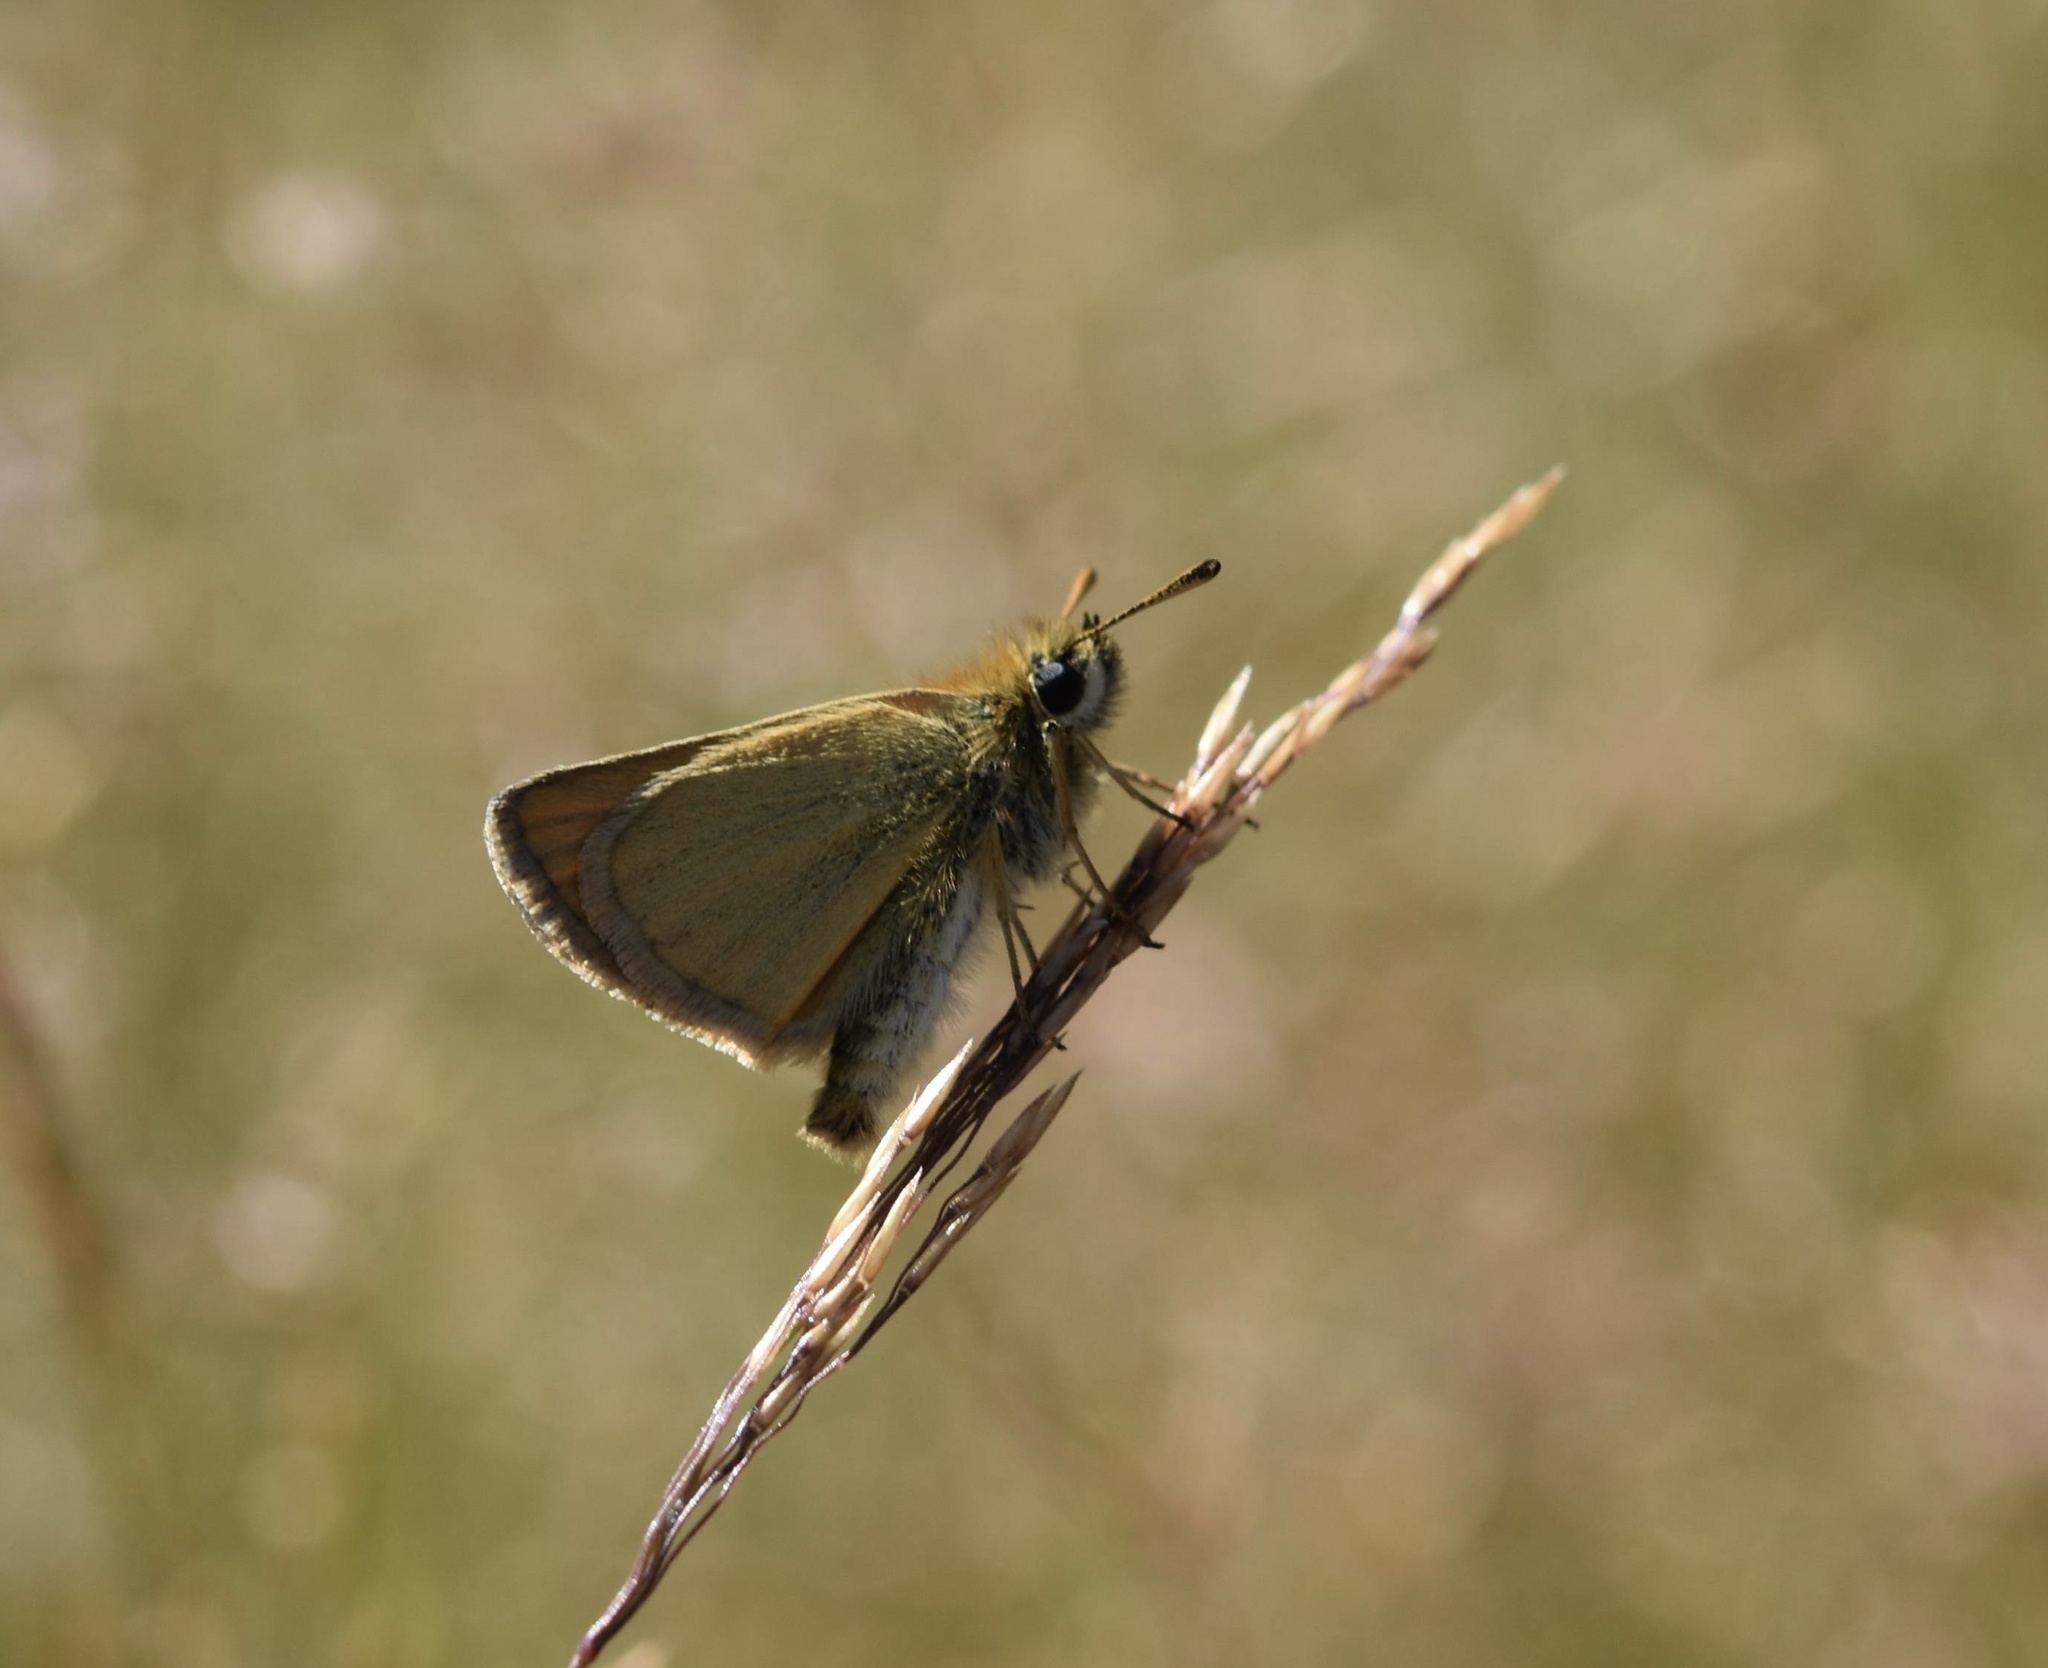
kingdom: Animalia
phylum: Arthropoda
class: Insecta
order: Lepidoptera
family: Hesperiidae
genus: Thymelicus
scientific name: Thymelicus lineola
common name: Essex skipper
